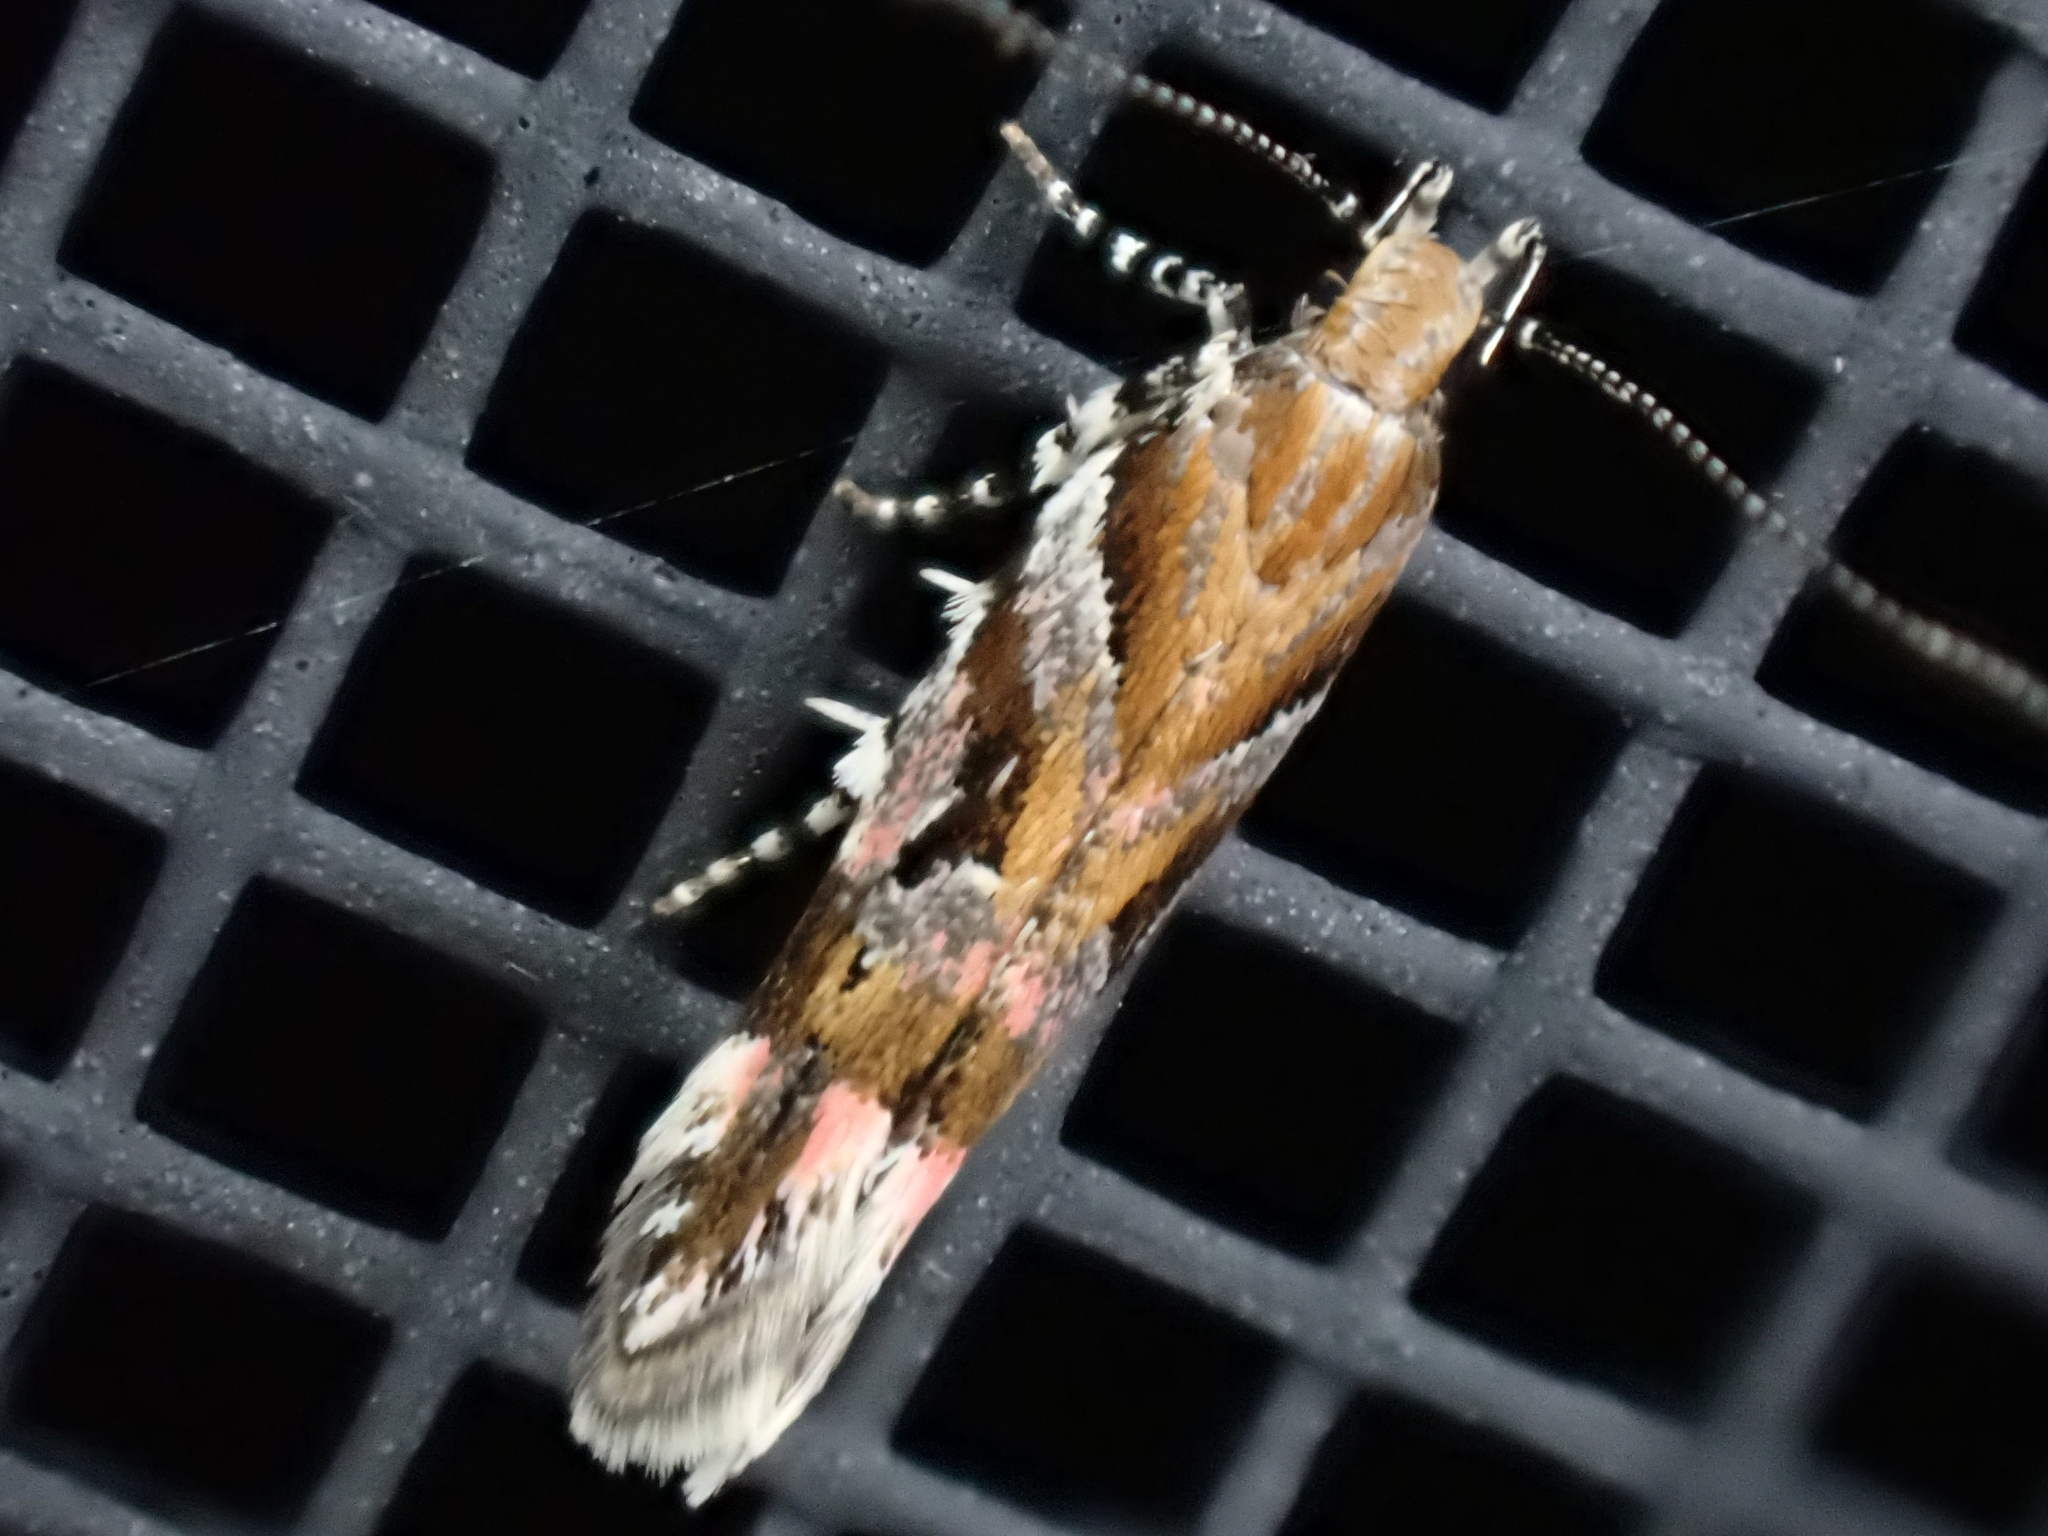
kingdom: Animalia
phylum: Arthropoda
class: Insecta
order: Lepidoptera
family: Gelechiidae
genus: Aristotelia
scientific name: Aristotelia roseosuffusella
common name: Pink-washed aristotelia moth
